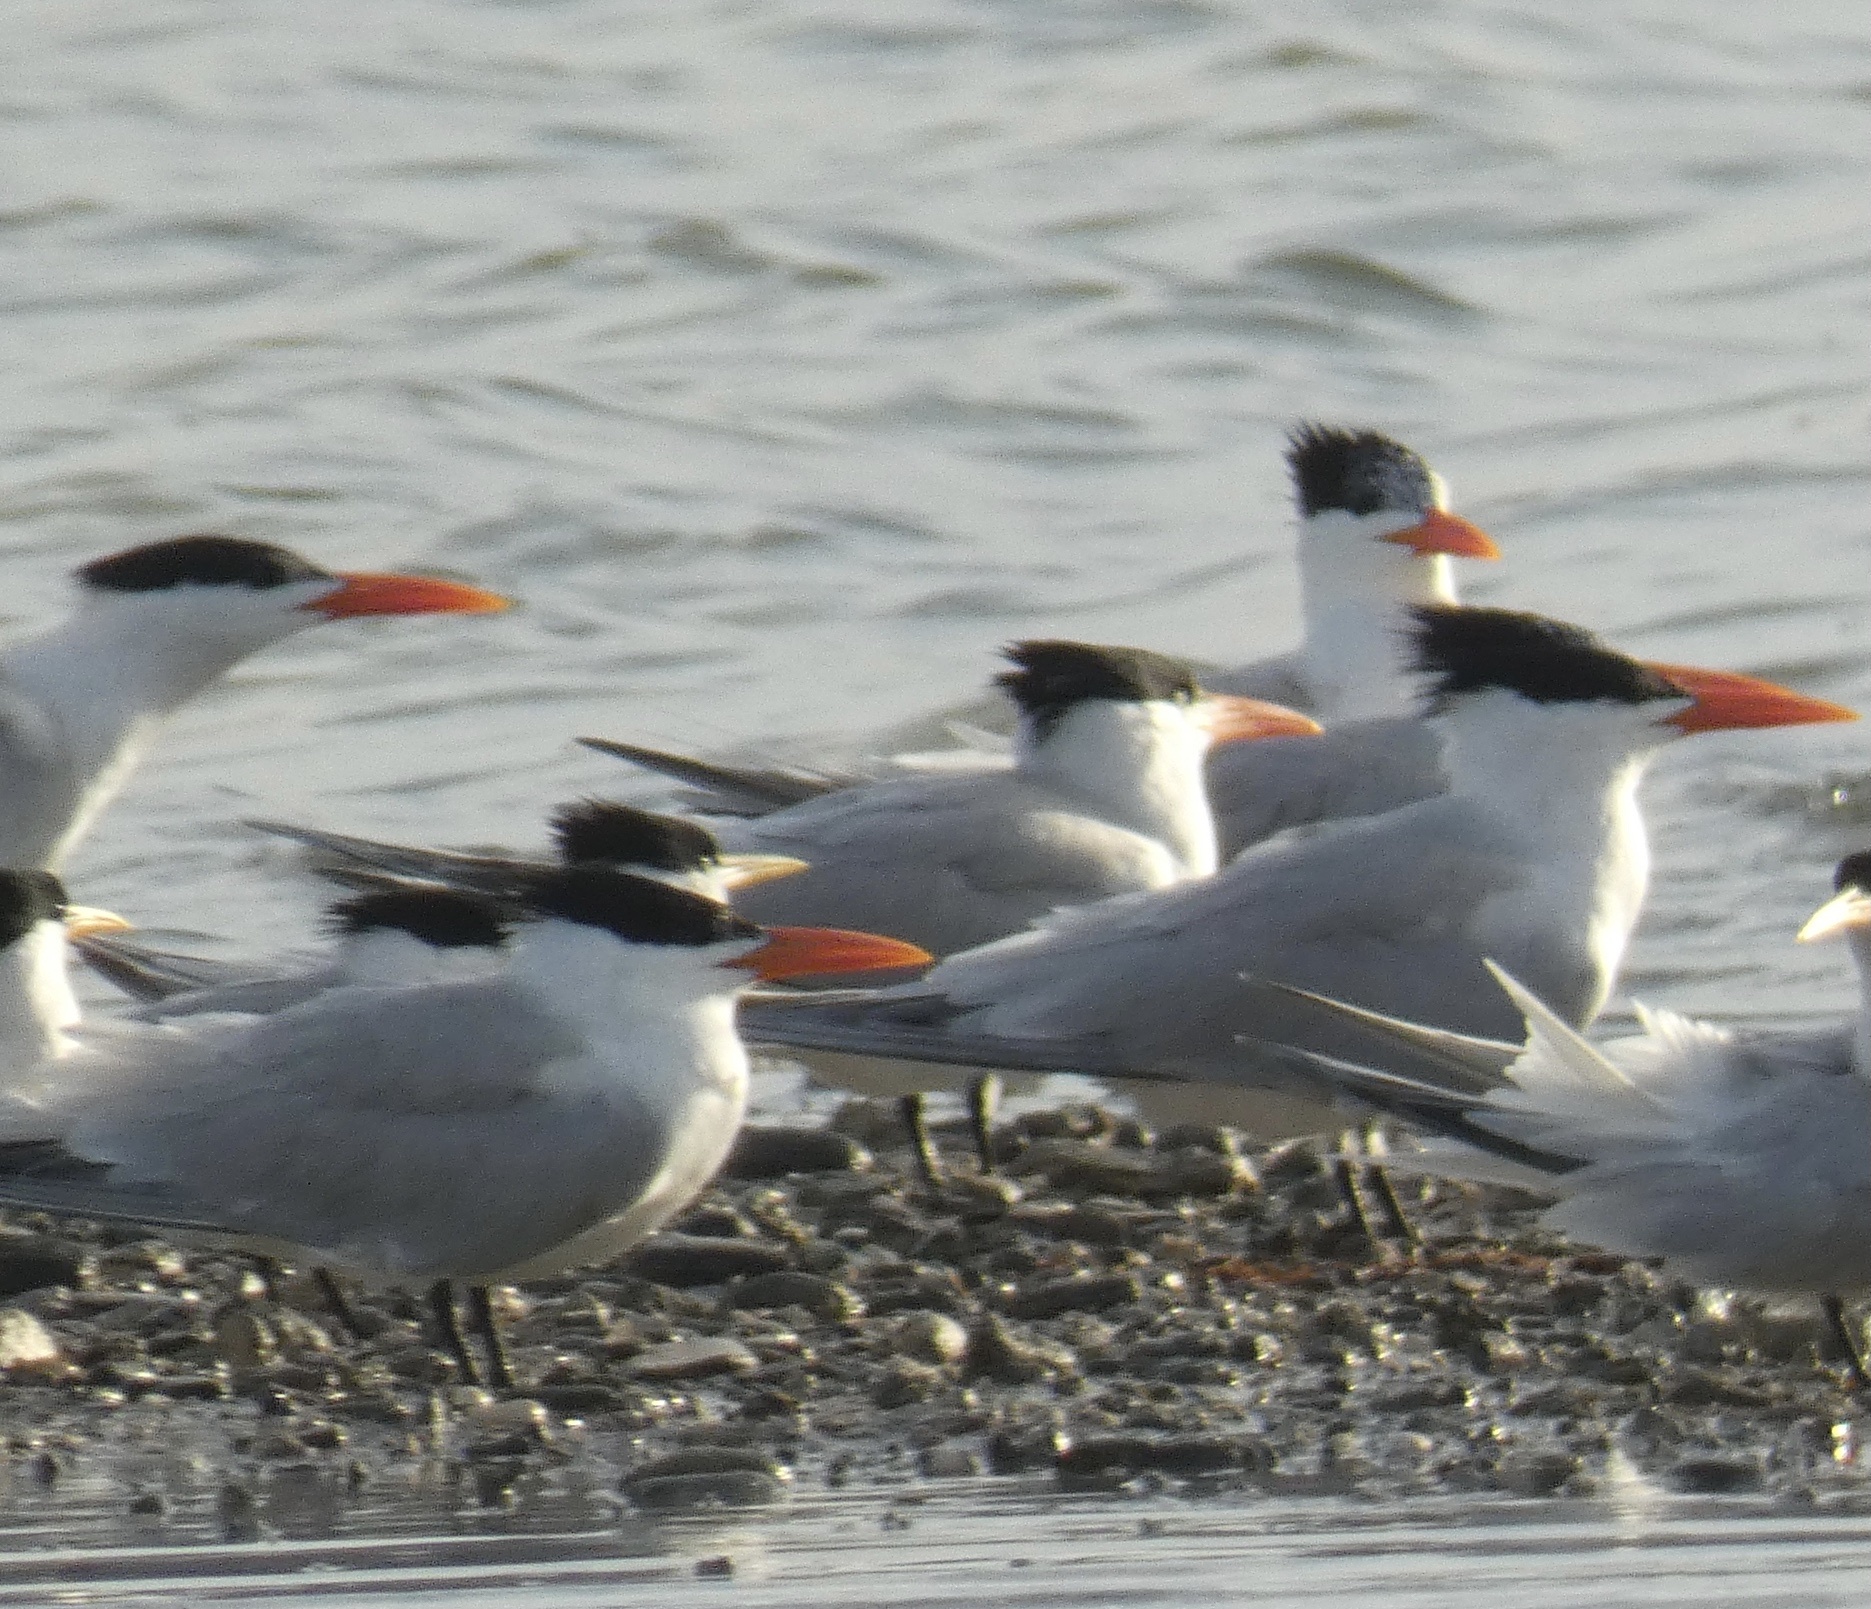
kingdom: Animalia
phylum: Chordata
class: Aves
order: Charadriiformes
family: Laridae
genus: Thalasseus
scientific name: Thalasseus maximus
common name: Royal tern
